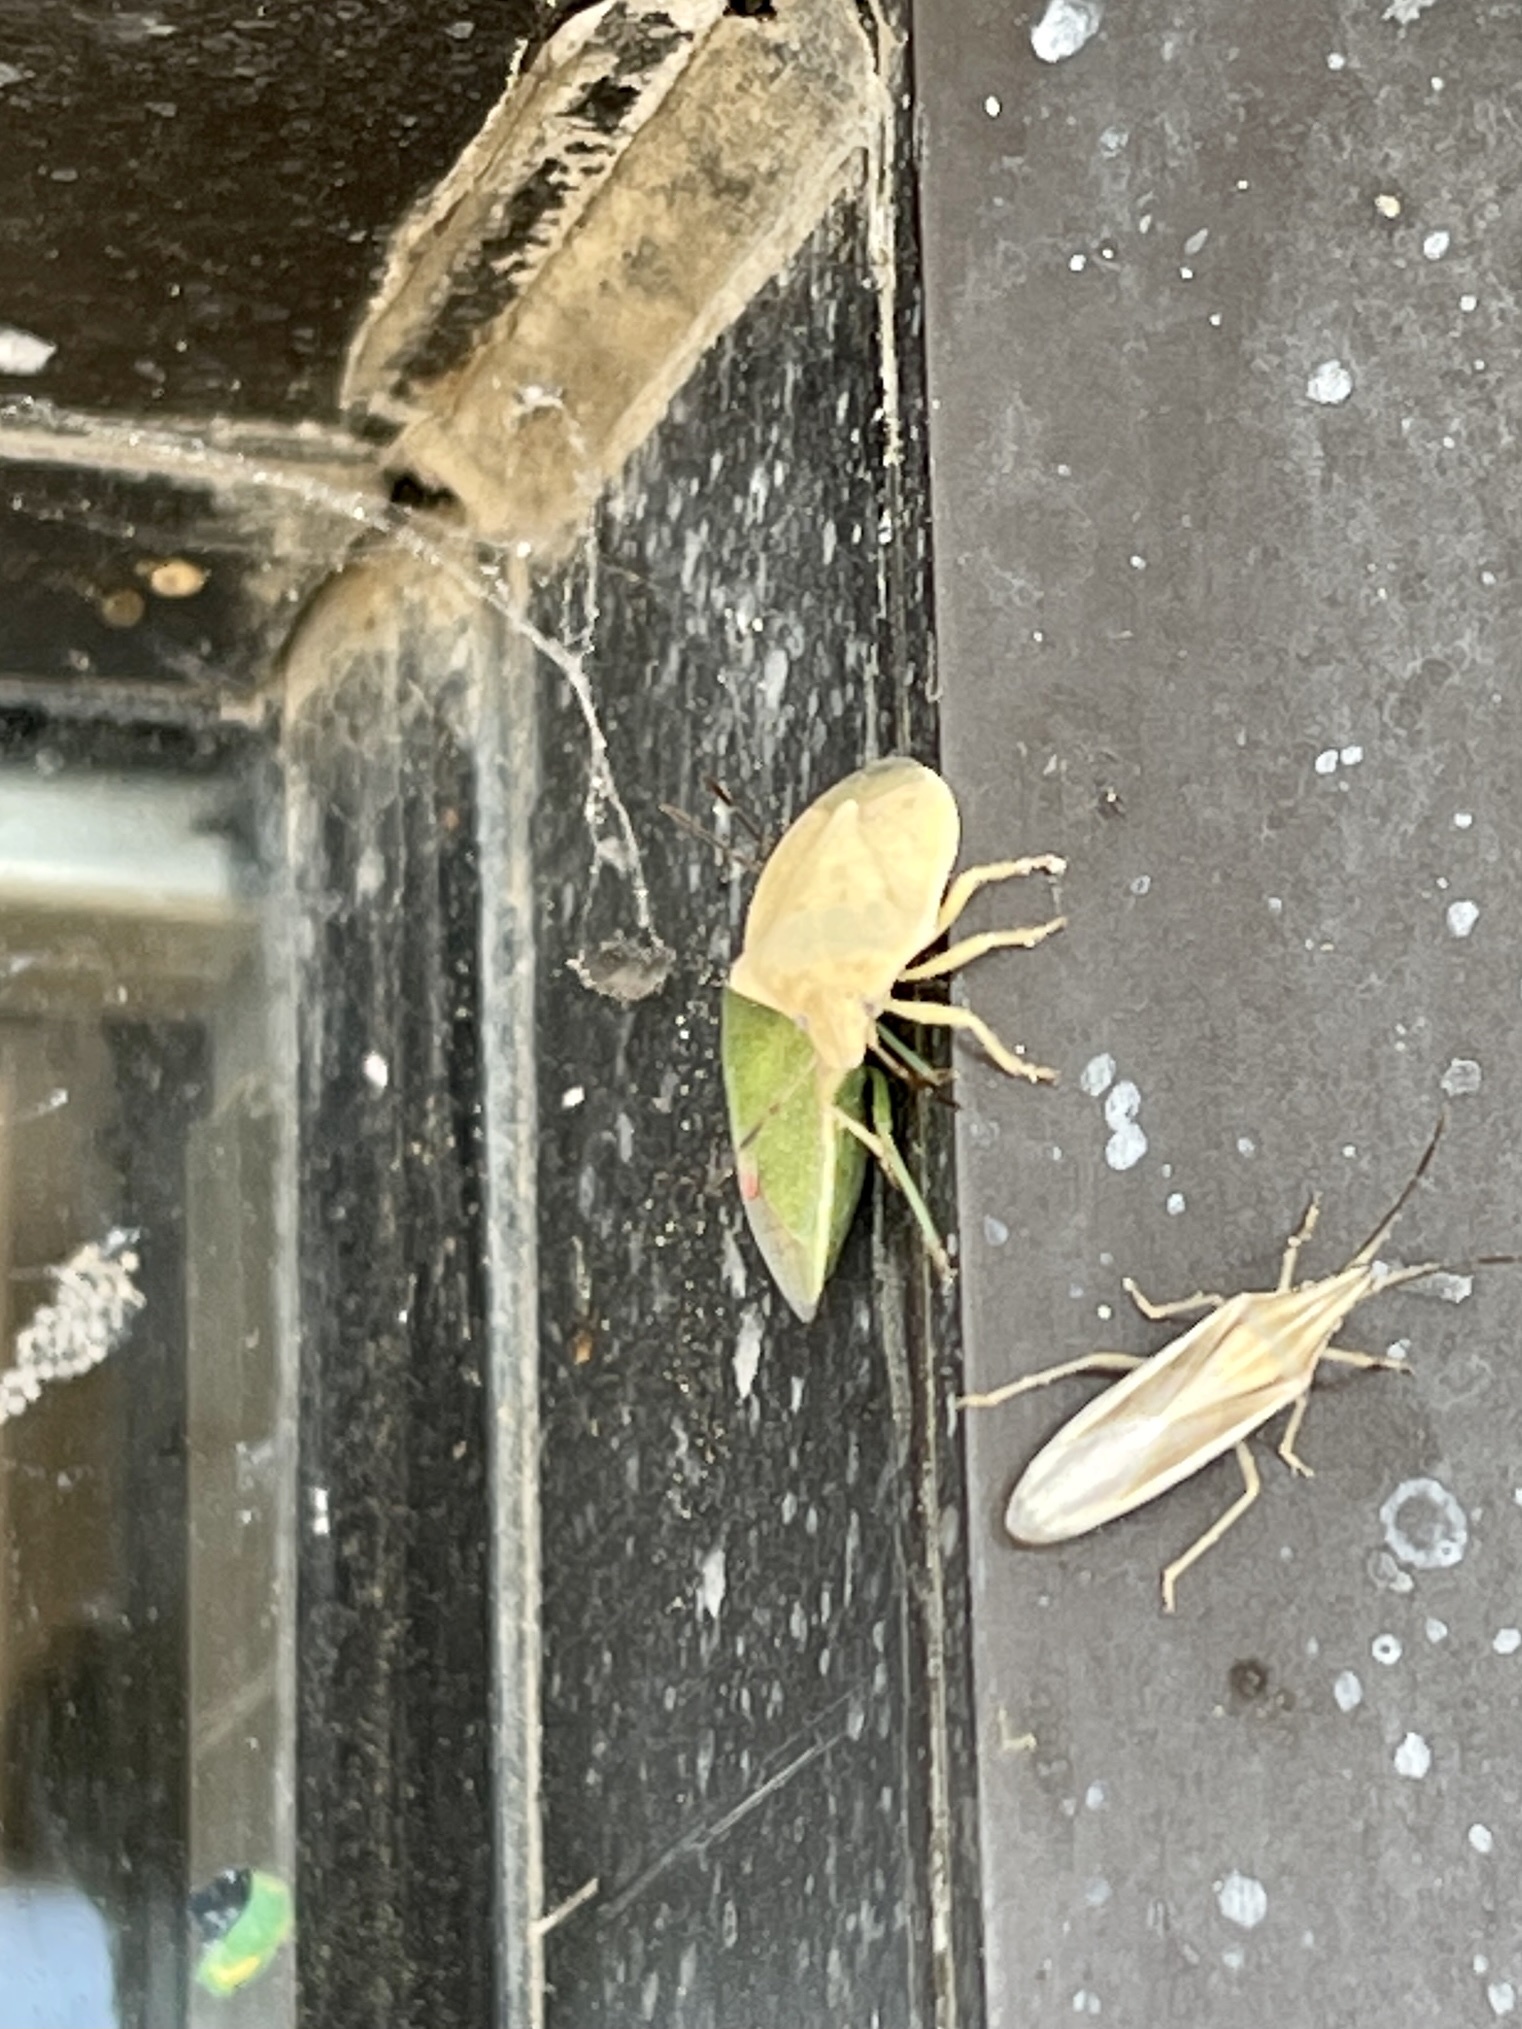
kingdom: Animalia
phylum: Arthropoda
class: Insecta
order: Hemiptera
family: Pentatomidae
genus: Thyanta
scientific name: Thyanta accerra
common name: Stink bug
